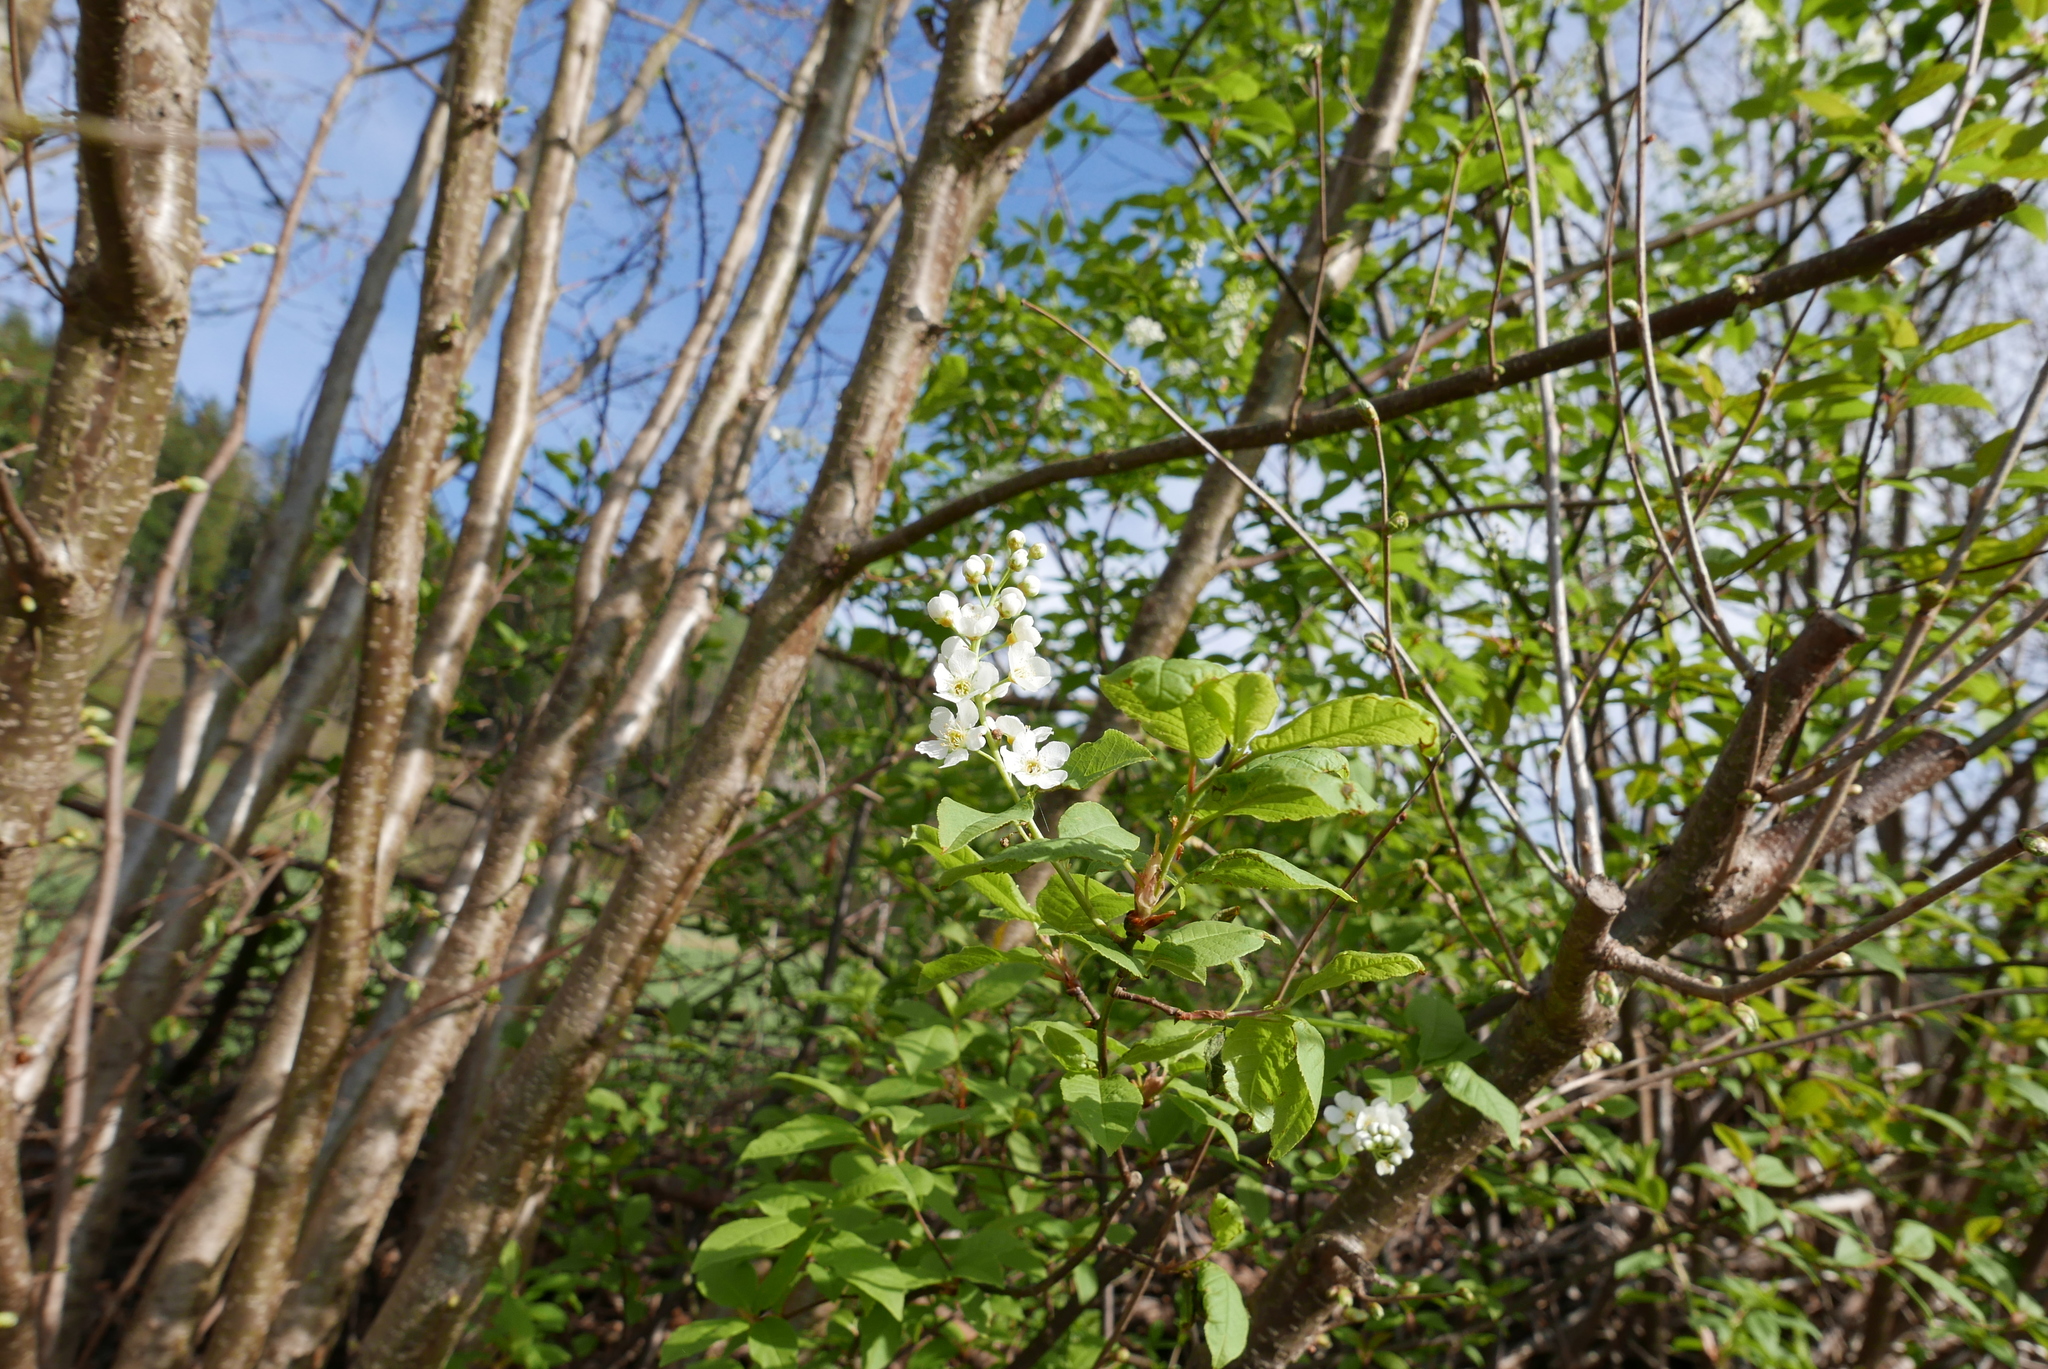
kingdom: Plantae
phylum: Tracheophyta
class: Magnoliopsida
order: Rosales
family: Rosaceae
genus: Prunus
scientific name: Prunus padus
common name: Bird cherry
